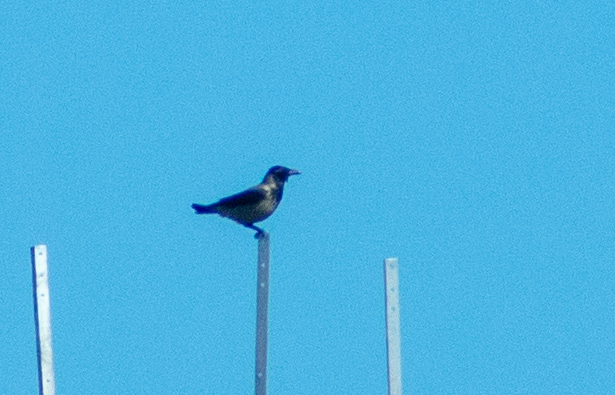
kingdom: Animalia
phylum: Chordata
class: Aves
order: Passeriformes
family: Corvidae
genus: Corvus
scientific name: Corvus cornix
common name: Hooded crow
